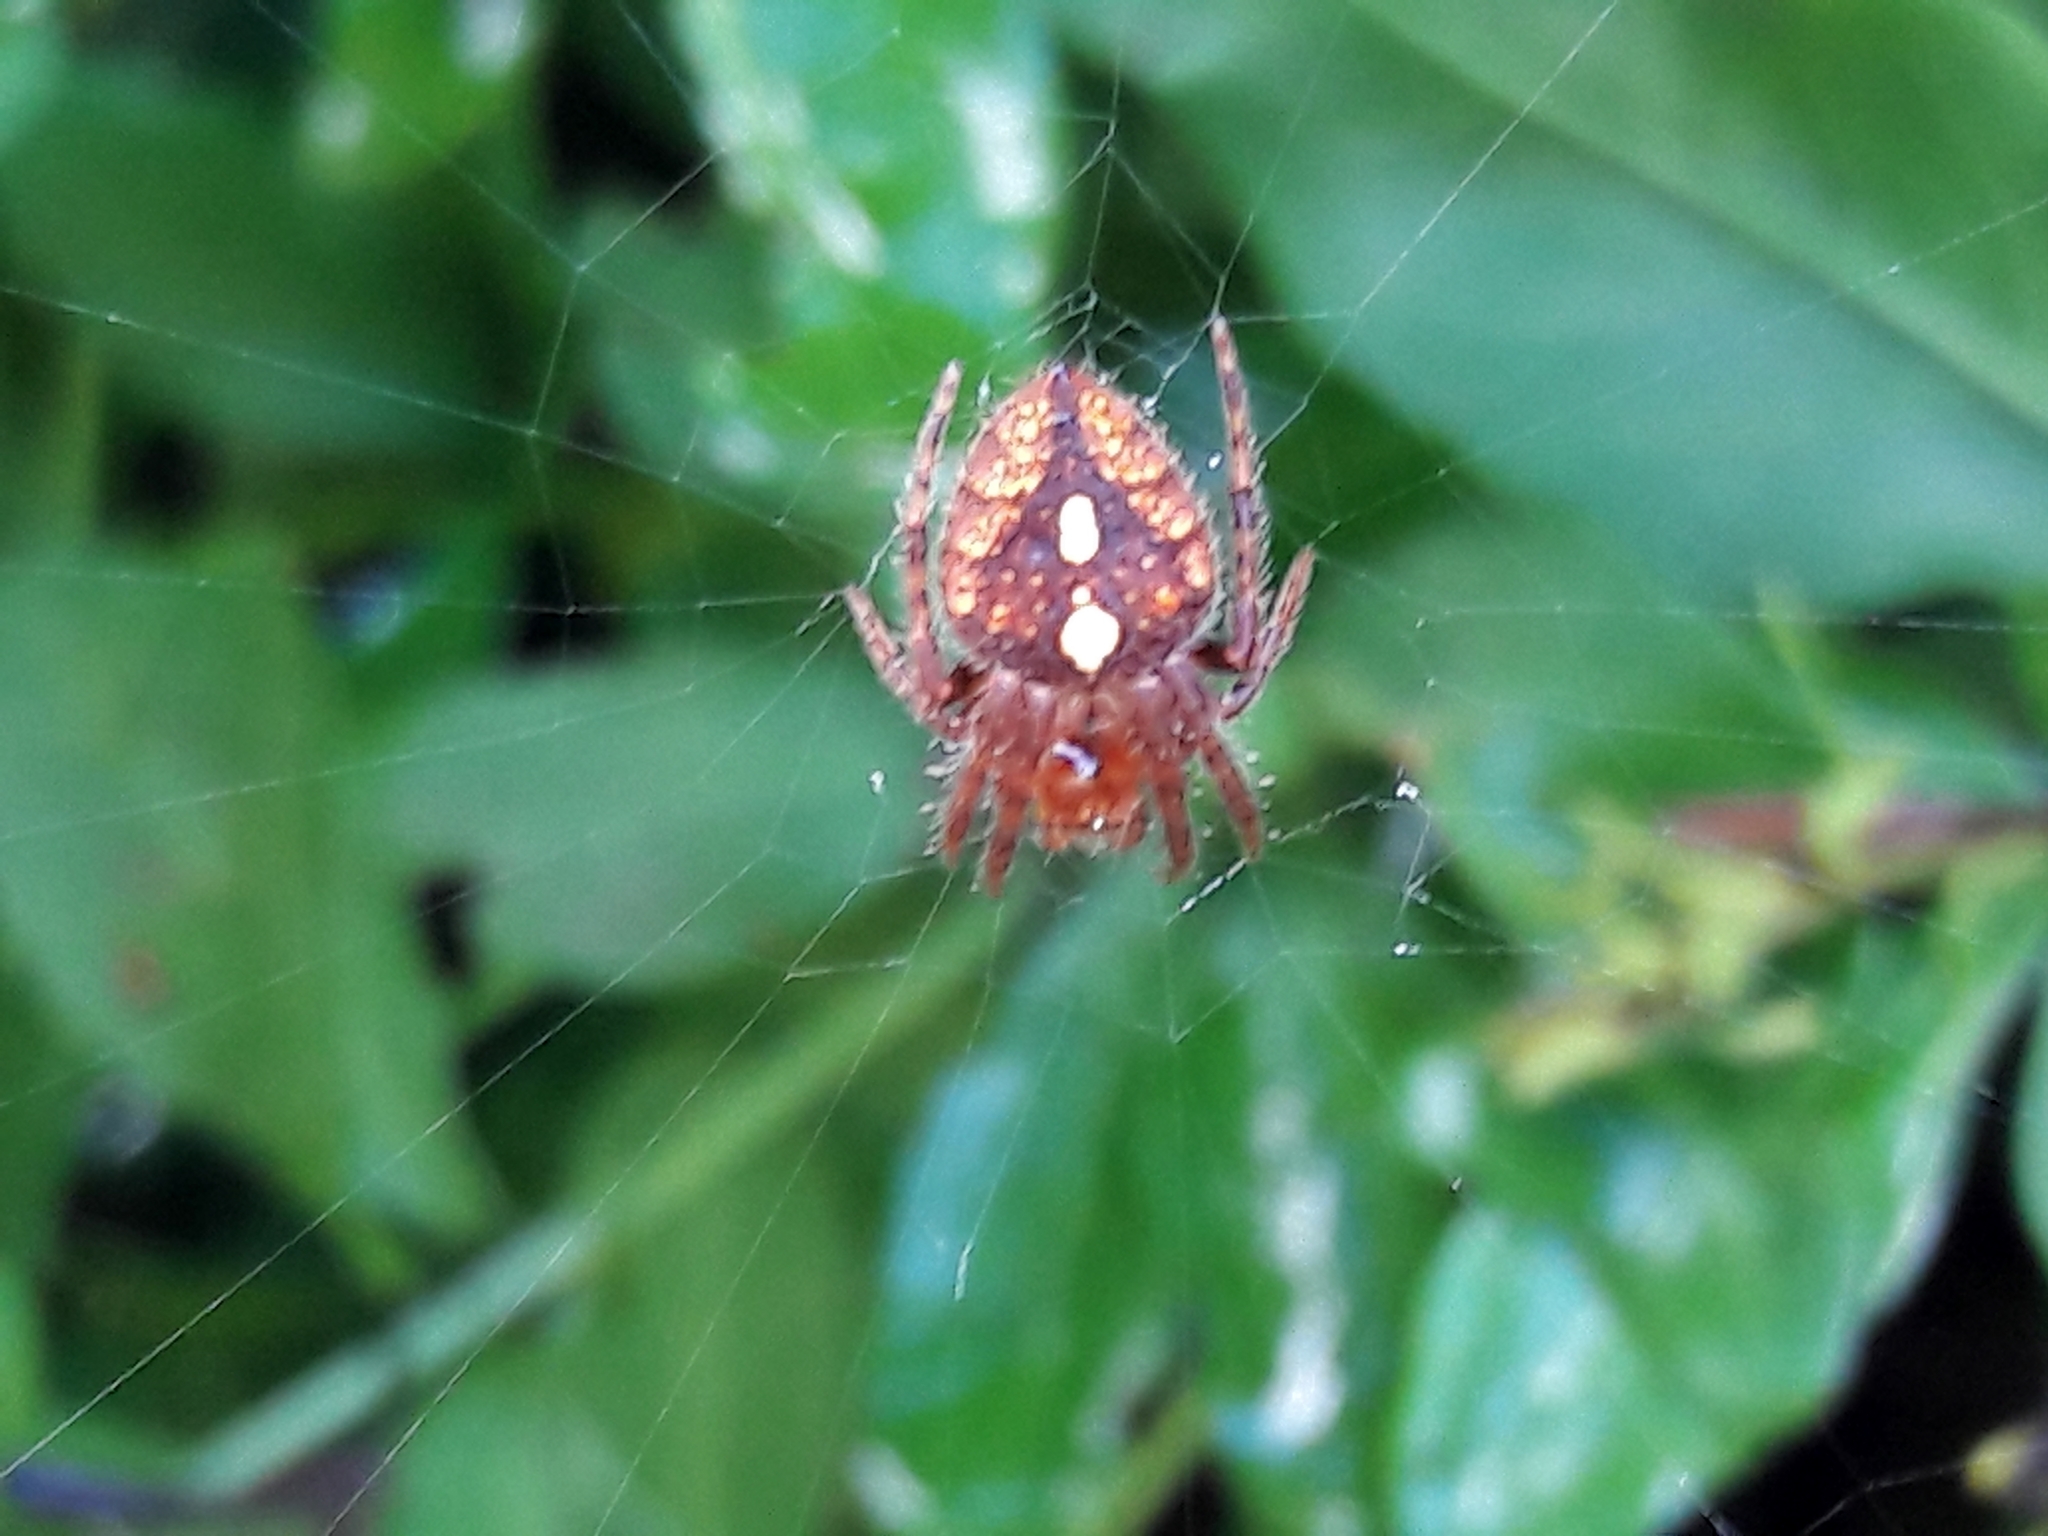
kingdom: Animalia
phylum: Arthropoda
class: Arachnida
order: Araneae
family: Araneidae
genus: Eriophora
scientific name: Eriophora edax
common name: Orb weavers
